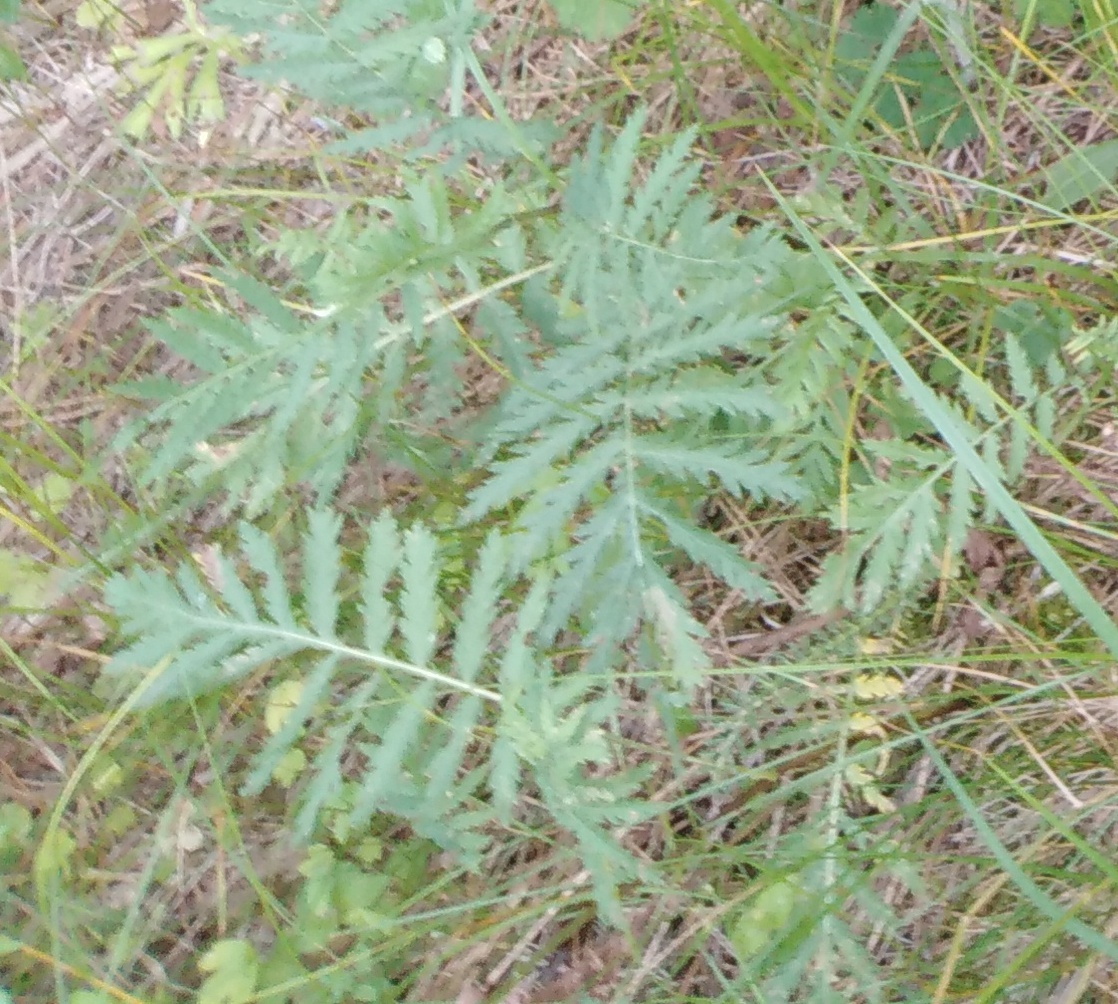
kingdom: Plantae
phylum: Tracheophyta
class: Magnoliopsida
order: Asterales
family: Asteraceae
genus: Tanacetum
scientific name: Tanacetum vulgare
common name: Common tansy
